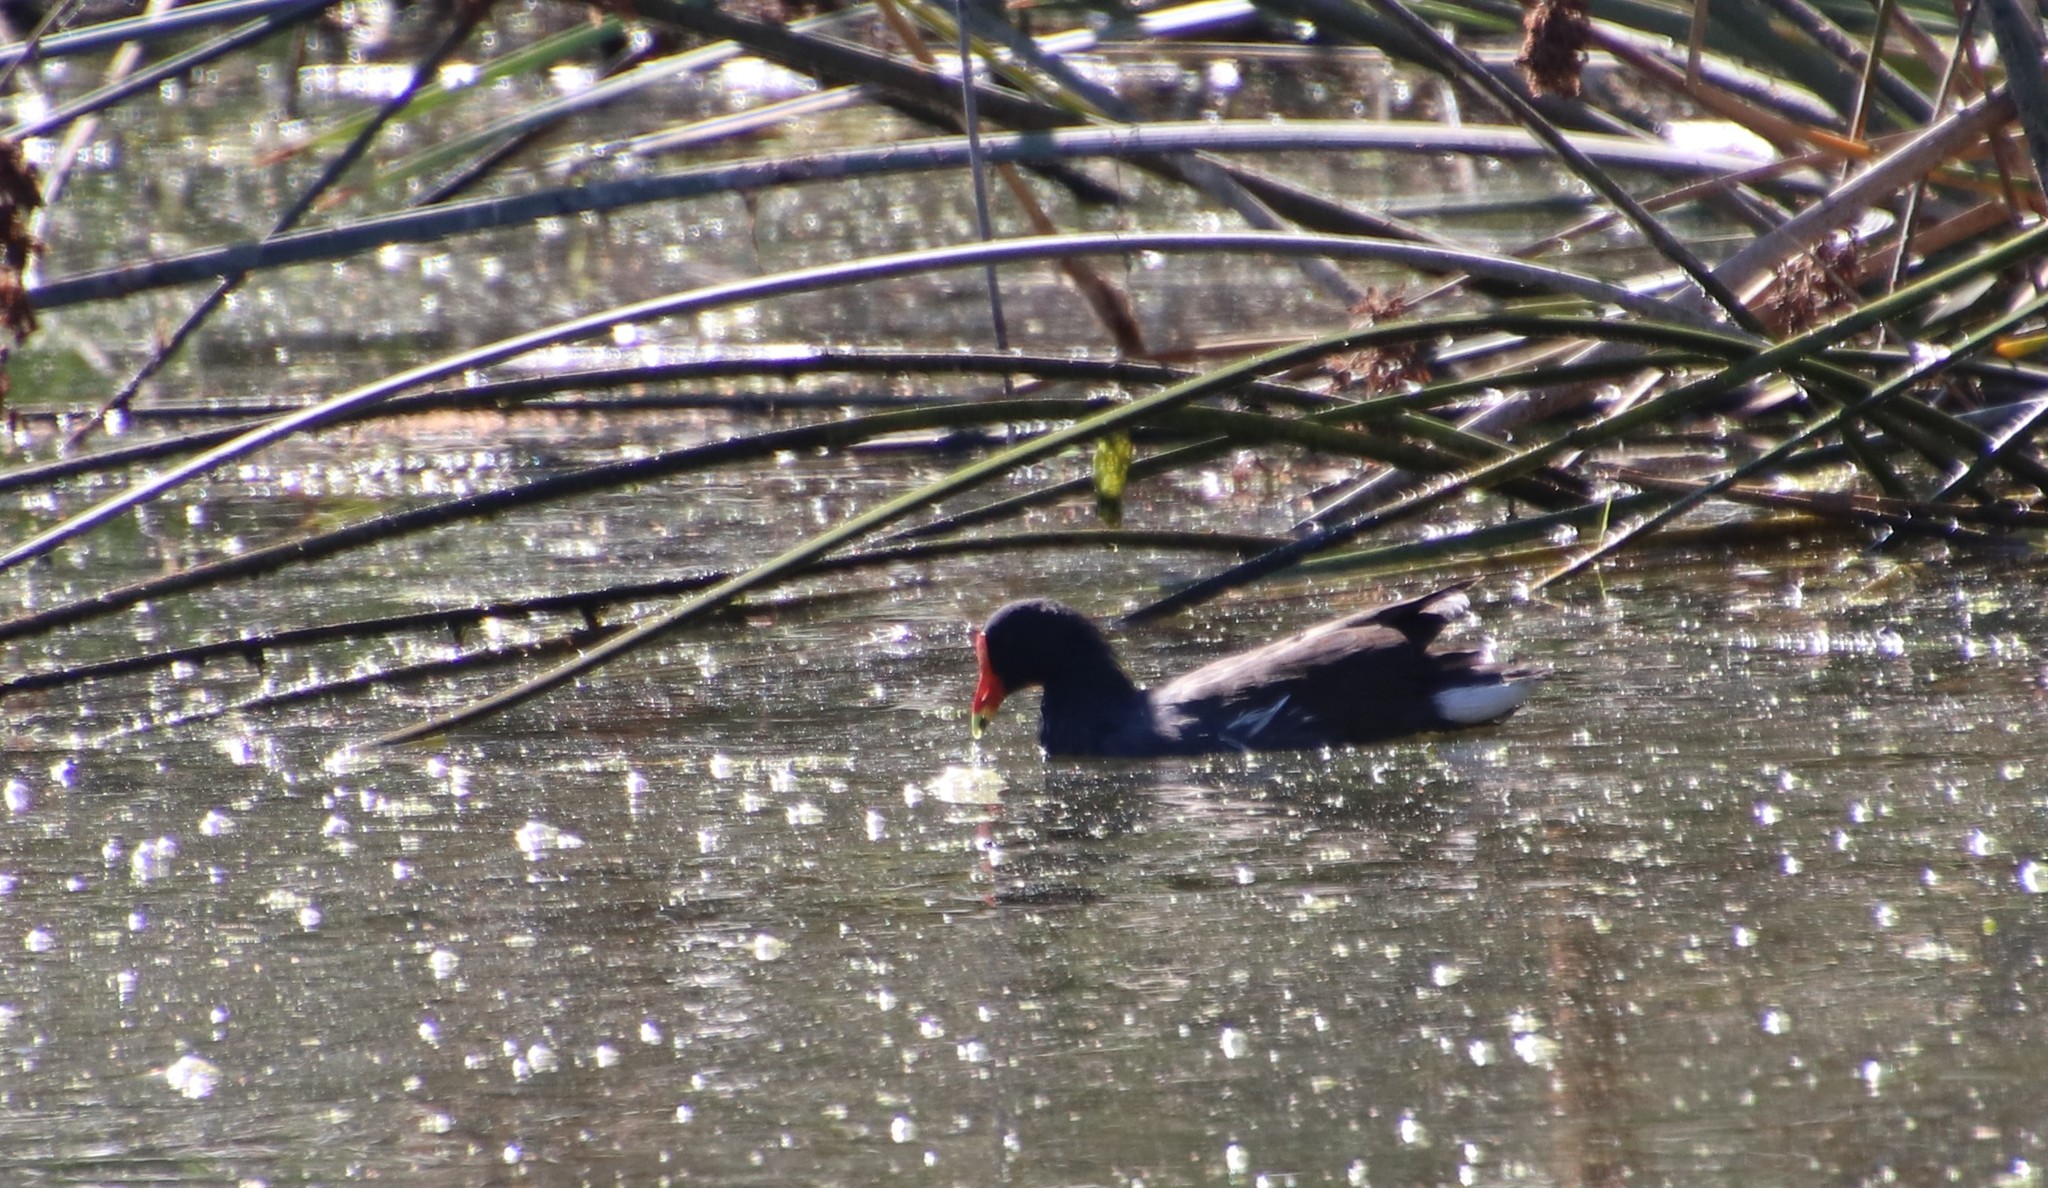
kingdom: Animalia
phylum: Chordata
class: Aves
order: Gruiformes
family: Rallidae
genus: Gallinula
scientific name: Gallinula chloropus
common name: Common moorhen
